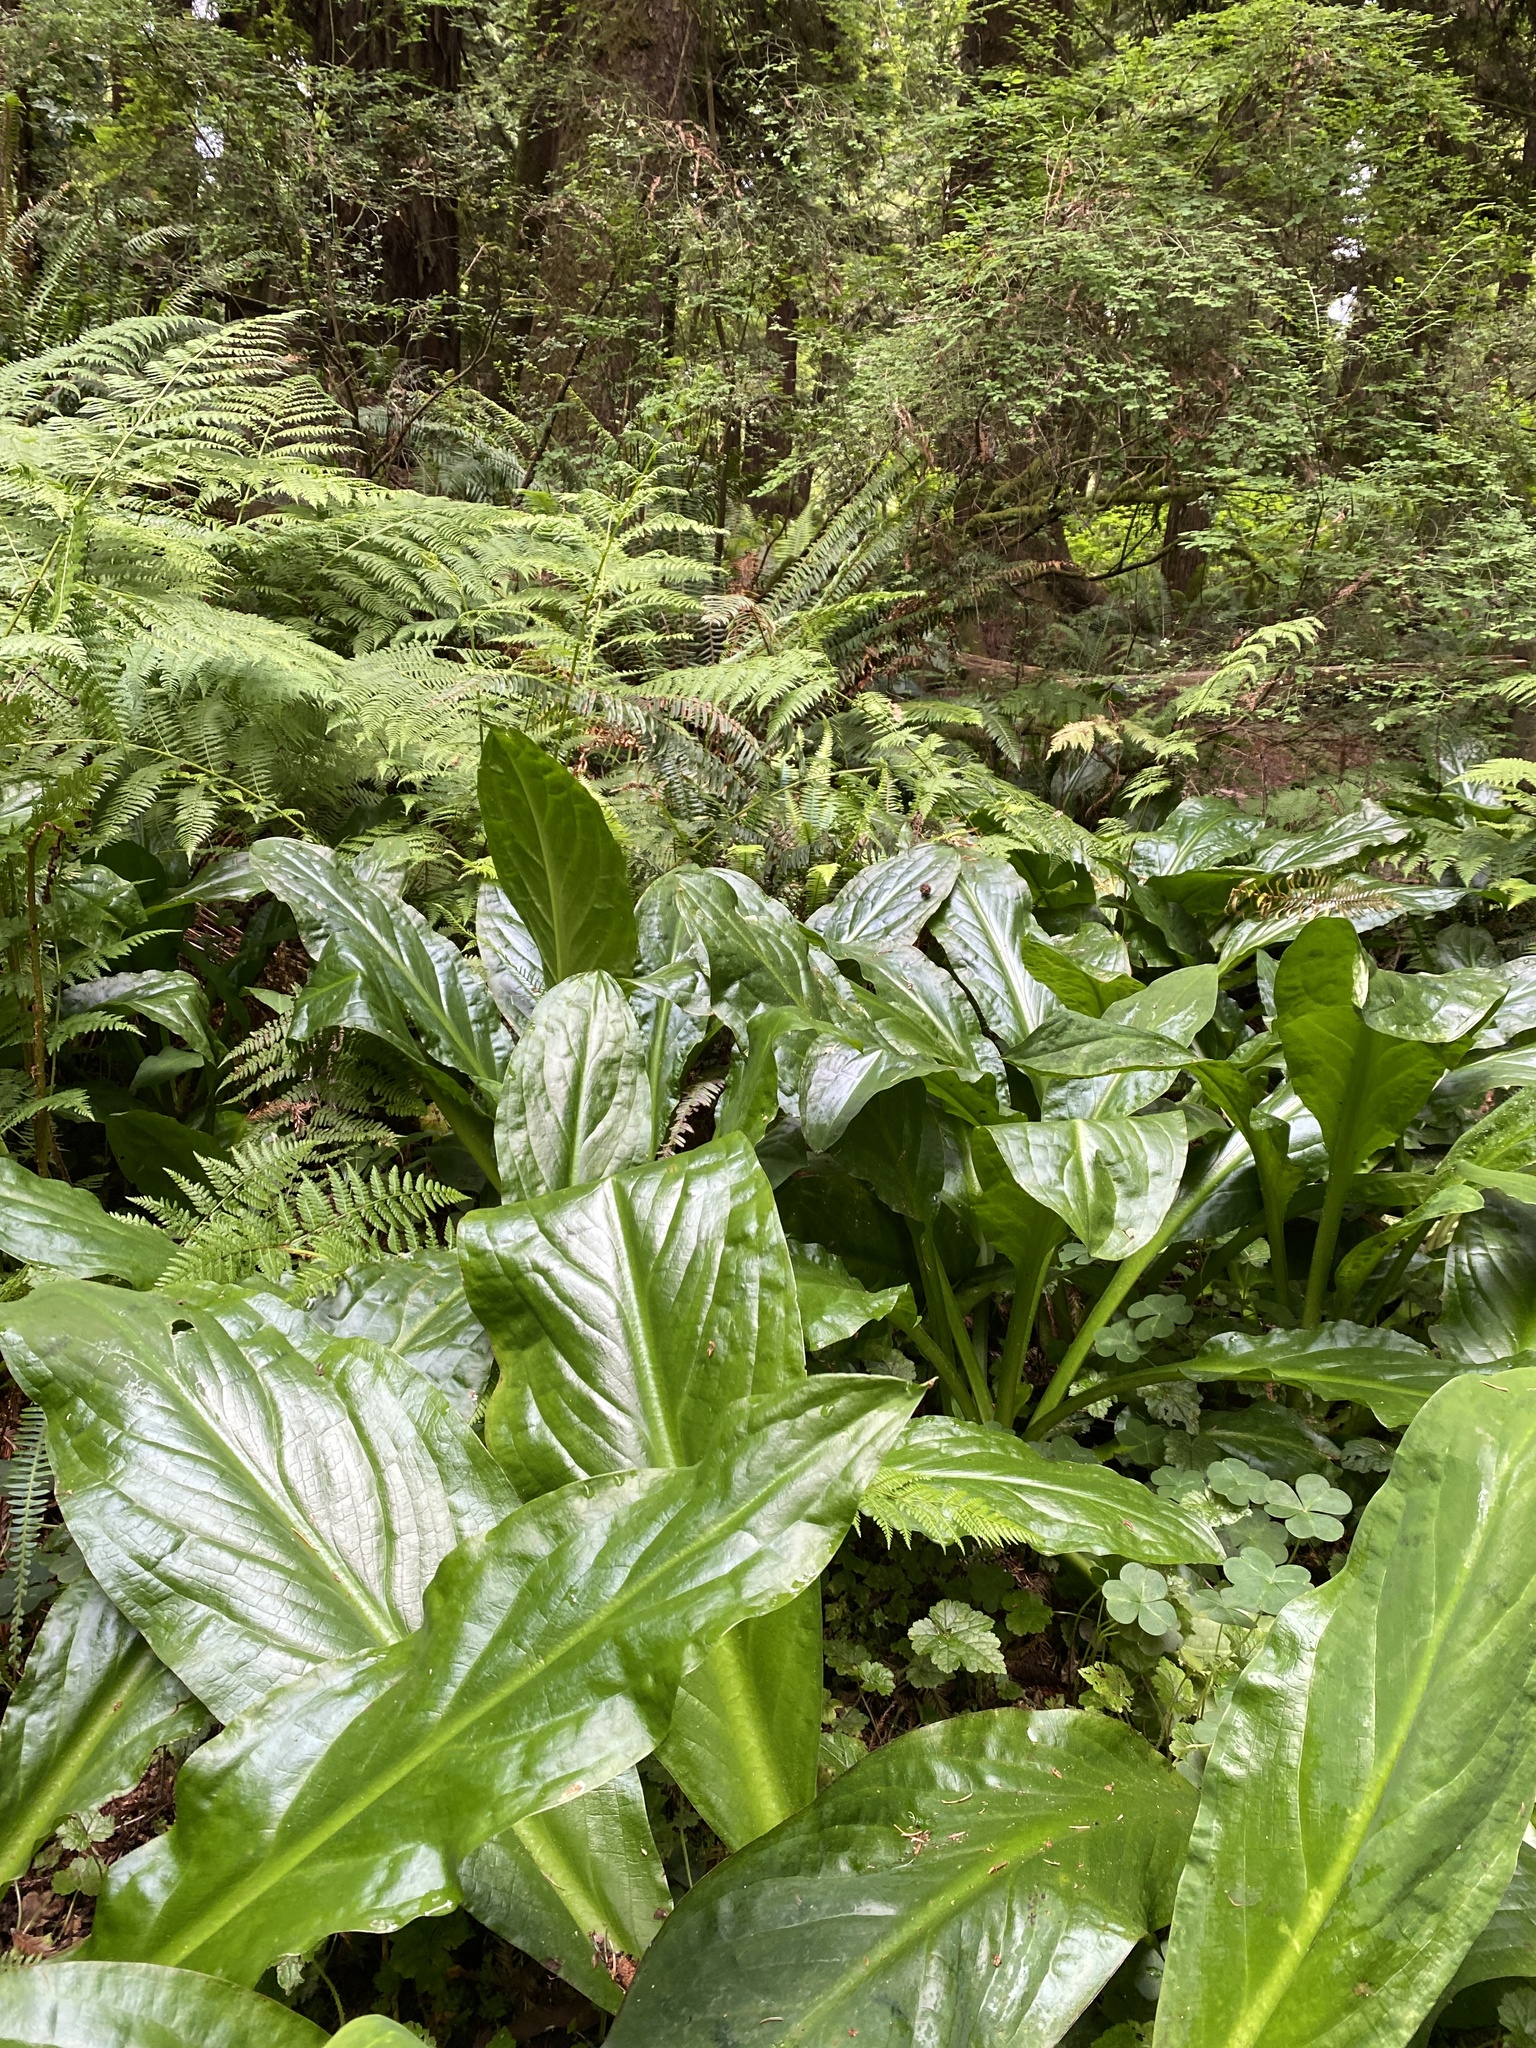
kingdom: Plantae
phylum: Tracheophyta
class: Liliopsida
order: Alismatales
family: Araceae
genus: Lysichiton
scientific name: Lysichiton americanus
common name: American skunk cabbage
